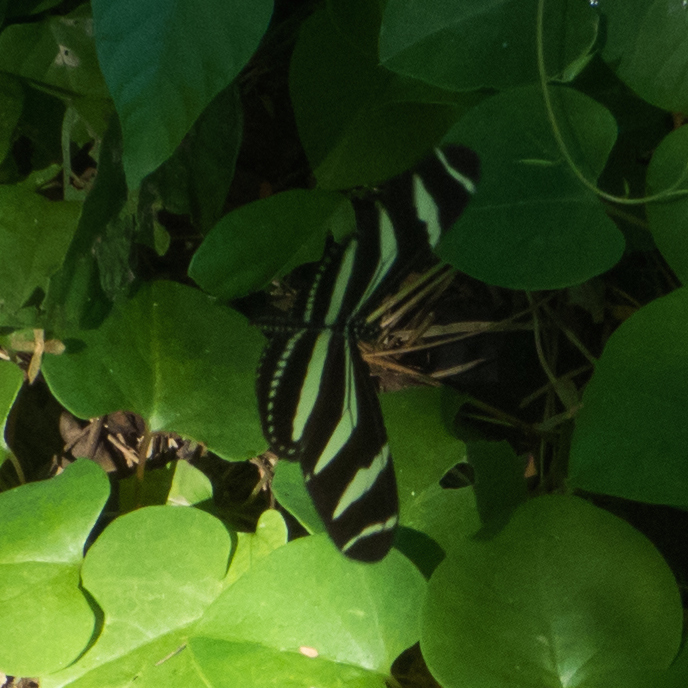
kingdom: Animalia
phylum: Arthropoda
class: Insecta
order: Lepidoptera
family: Nymphalidae
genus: Heliconius
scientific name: Heliconius charithonia
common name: Zebra long wing
